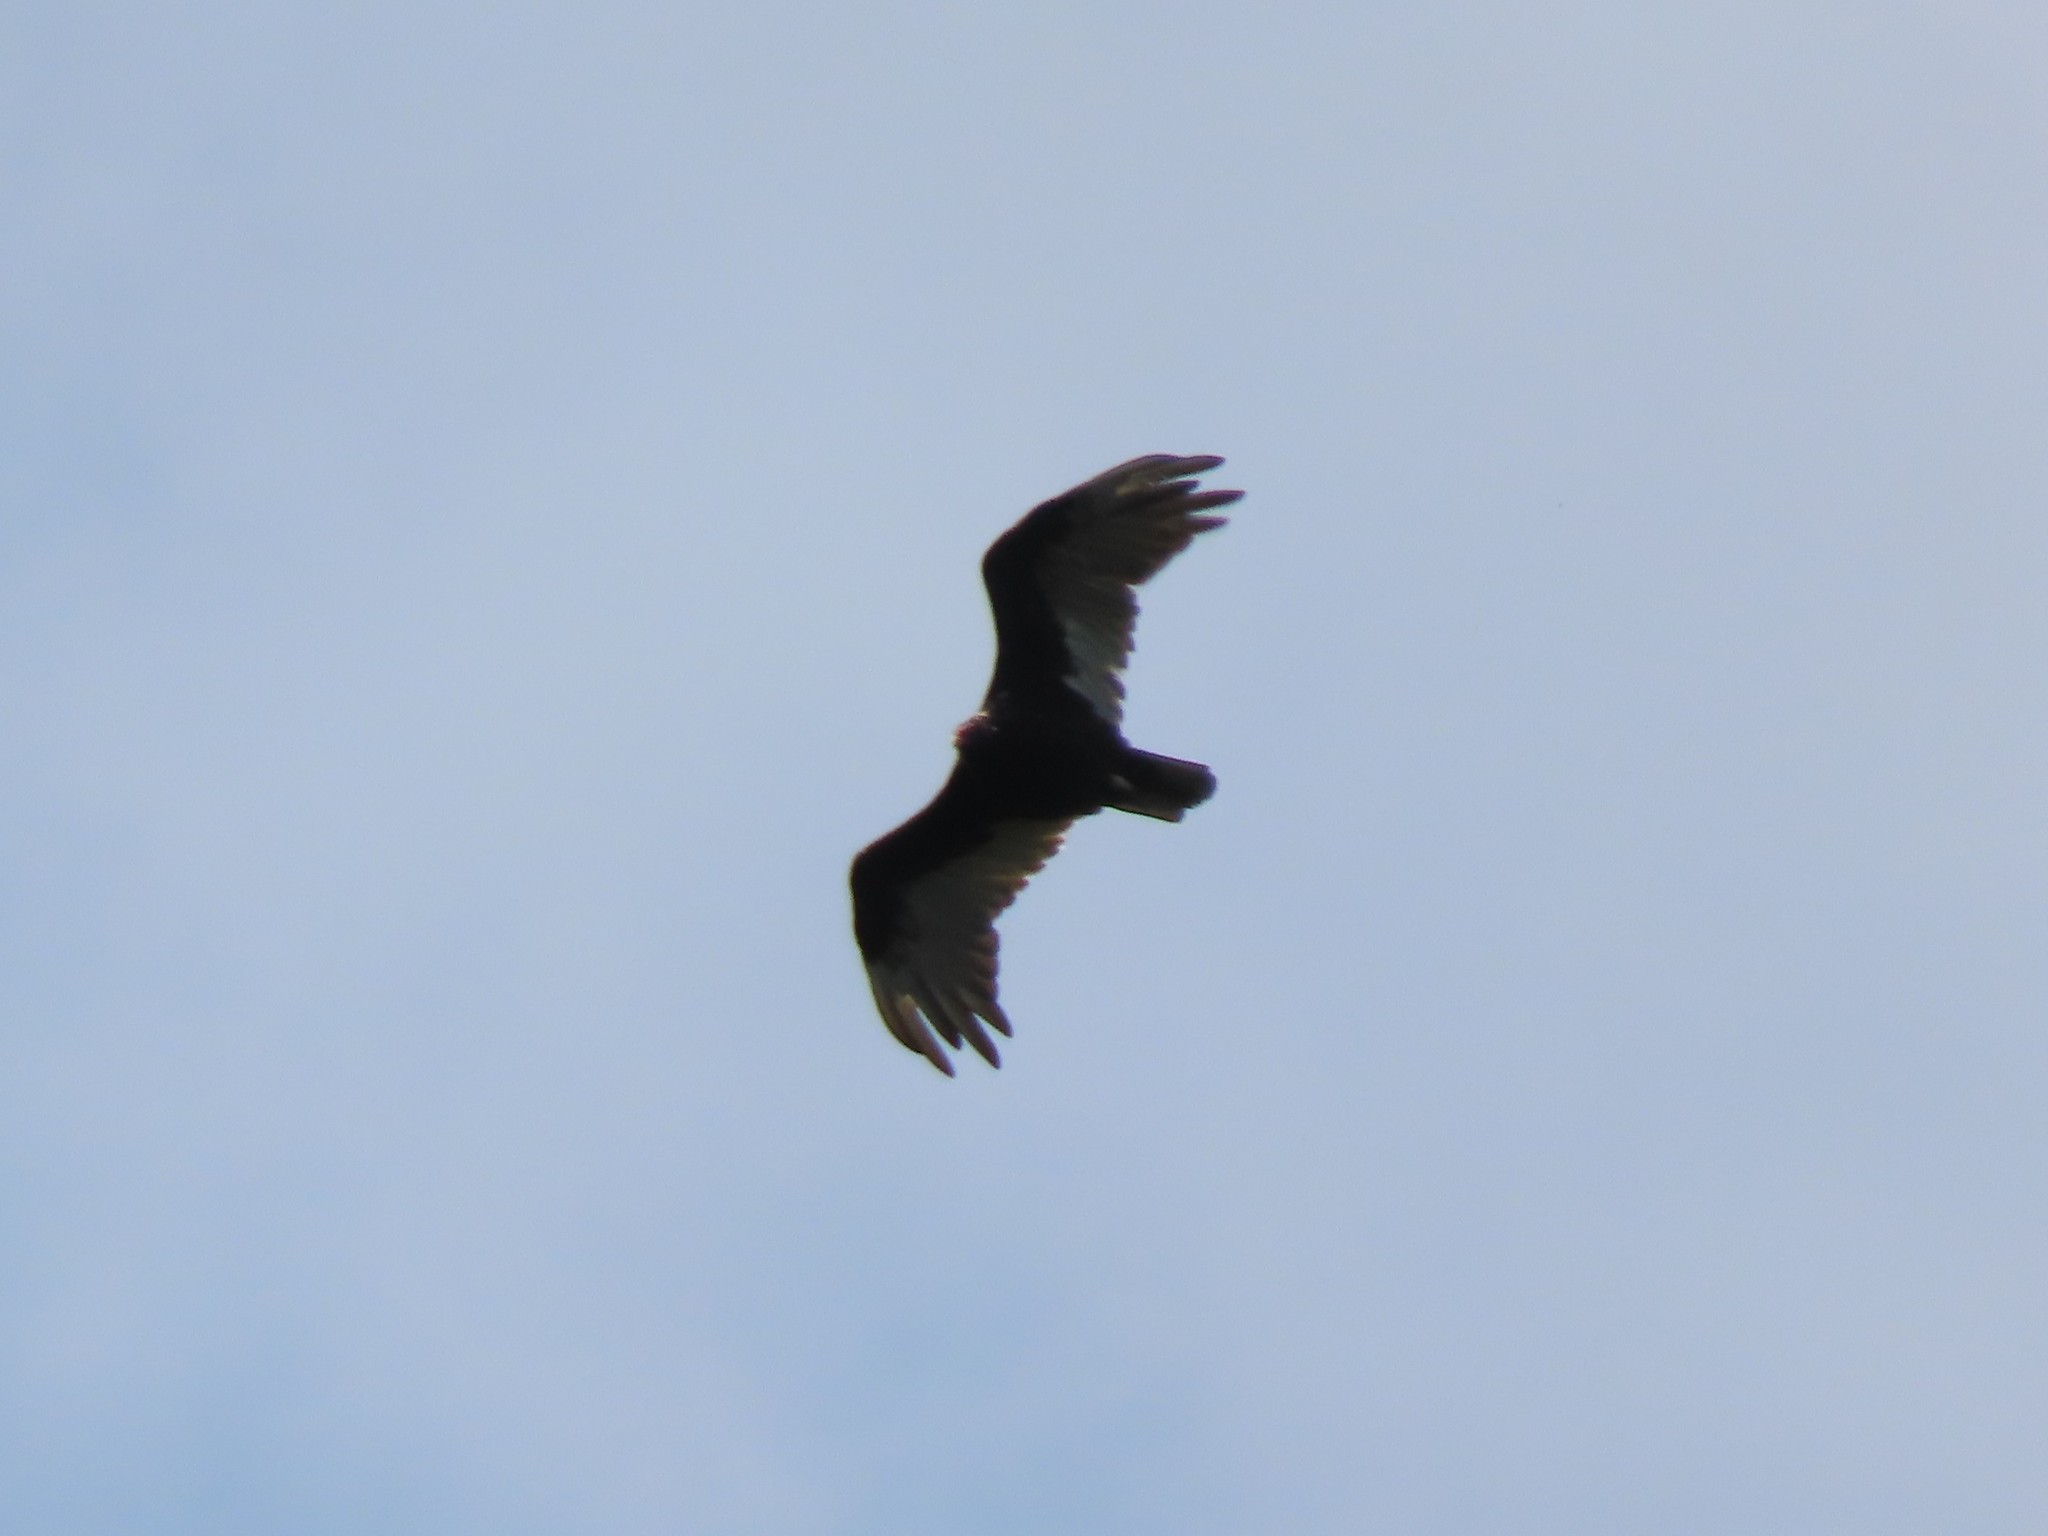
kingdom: Animalia
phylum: Chordata
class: Aves
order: Accipitriformes
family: Cathartidae
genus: Cathartes
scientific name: Cathartes aura
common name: Turkey vulture
